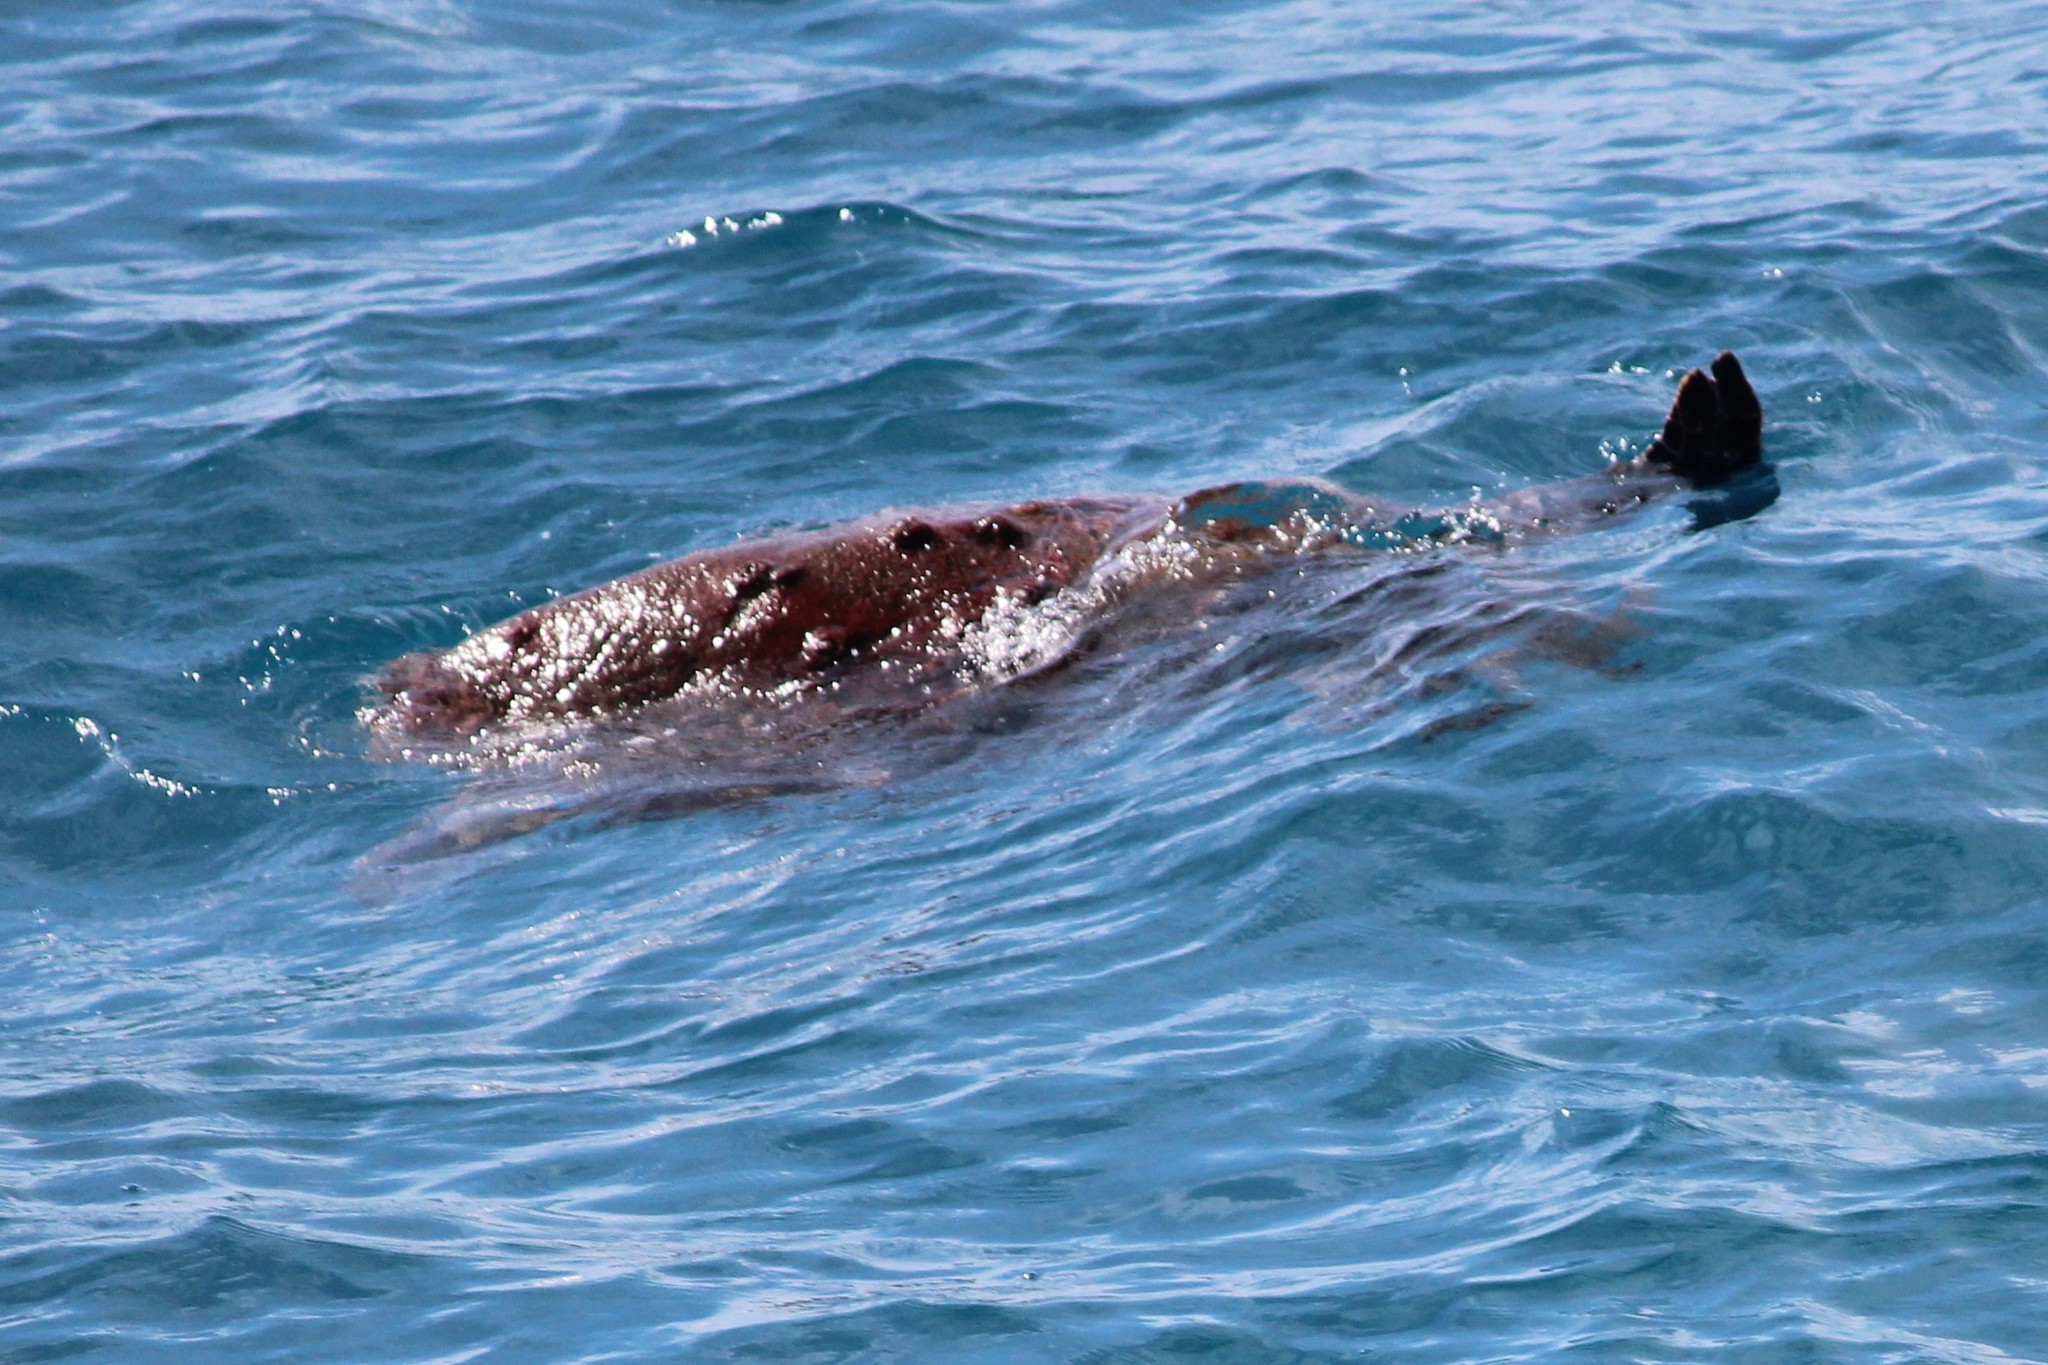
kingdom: Animalia
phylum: Chordata
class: Testudines
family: Cheloniidae
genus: Caretta
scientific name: Caretta caretta
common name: Loggerhead sea turtle
